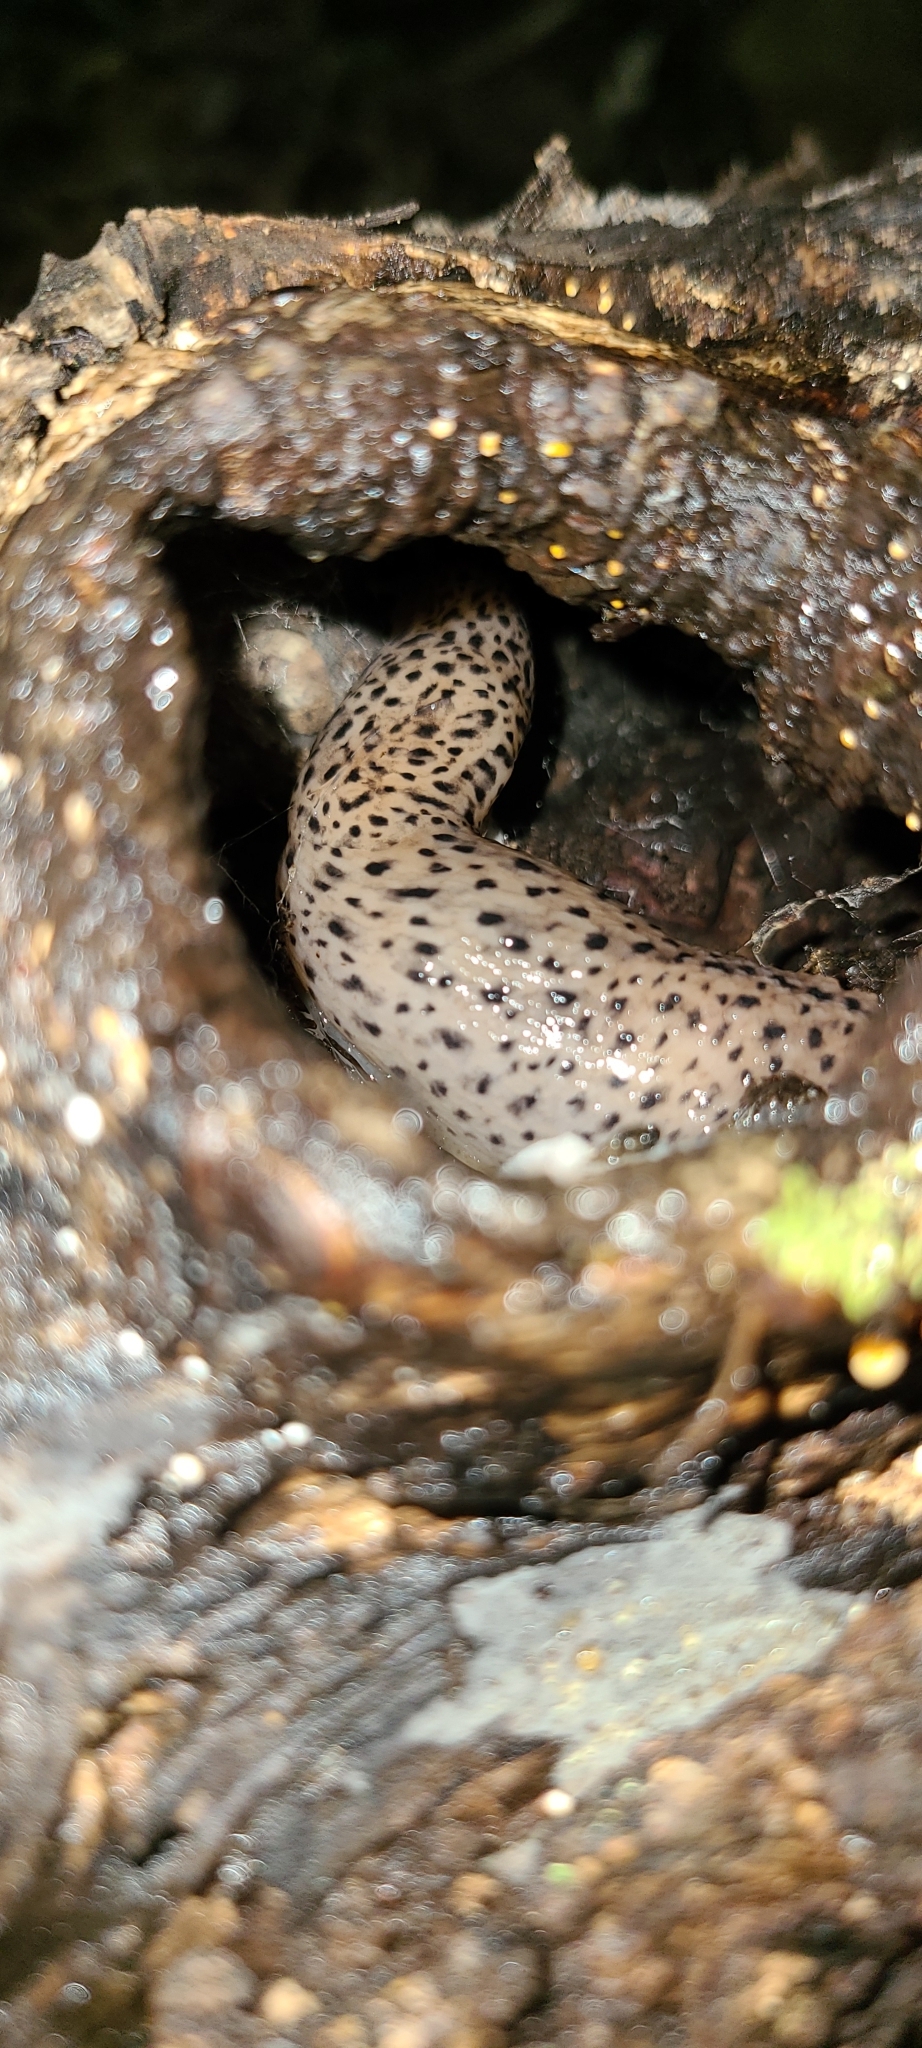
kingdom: Animalia
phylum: Mollusca
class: Gastropoda
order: Stylommatophora
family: Limacidae
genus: Limax
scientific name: Limax maximus
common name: Great grey slug
